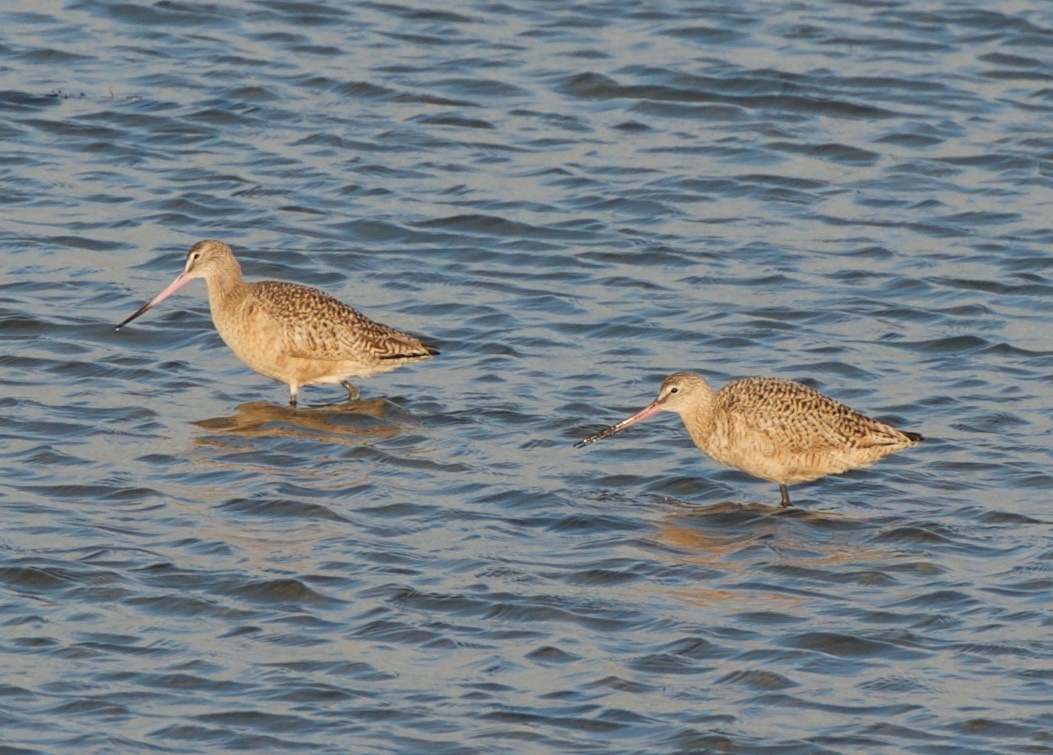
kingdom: Animalia
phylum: Chordata
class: Aves
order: Charadriiformes
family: Scolopacidae
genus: Limosa
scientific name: Limosa fedoa
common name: Marbled godwit
